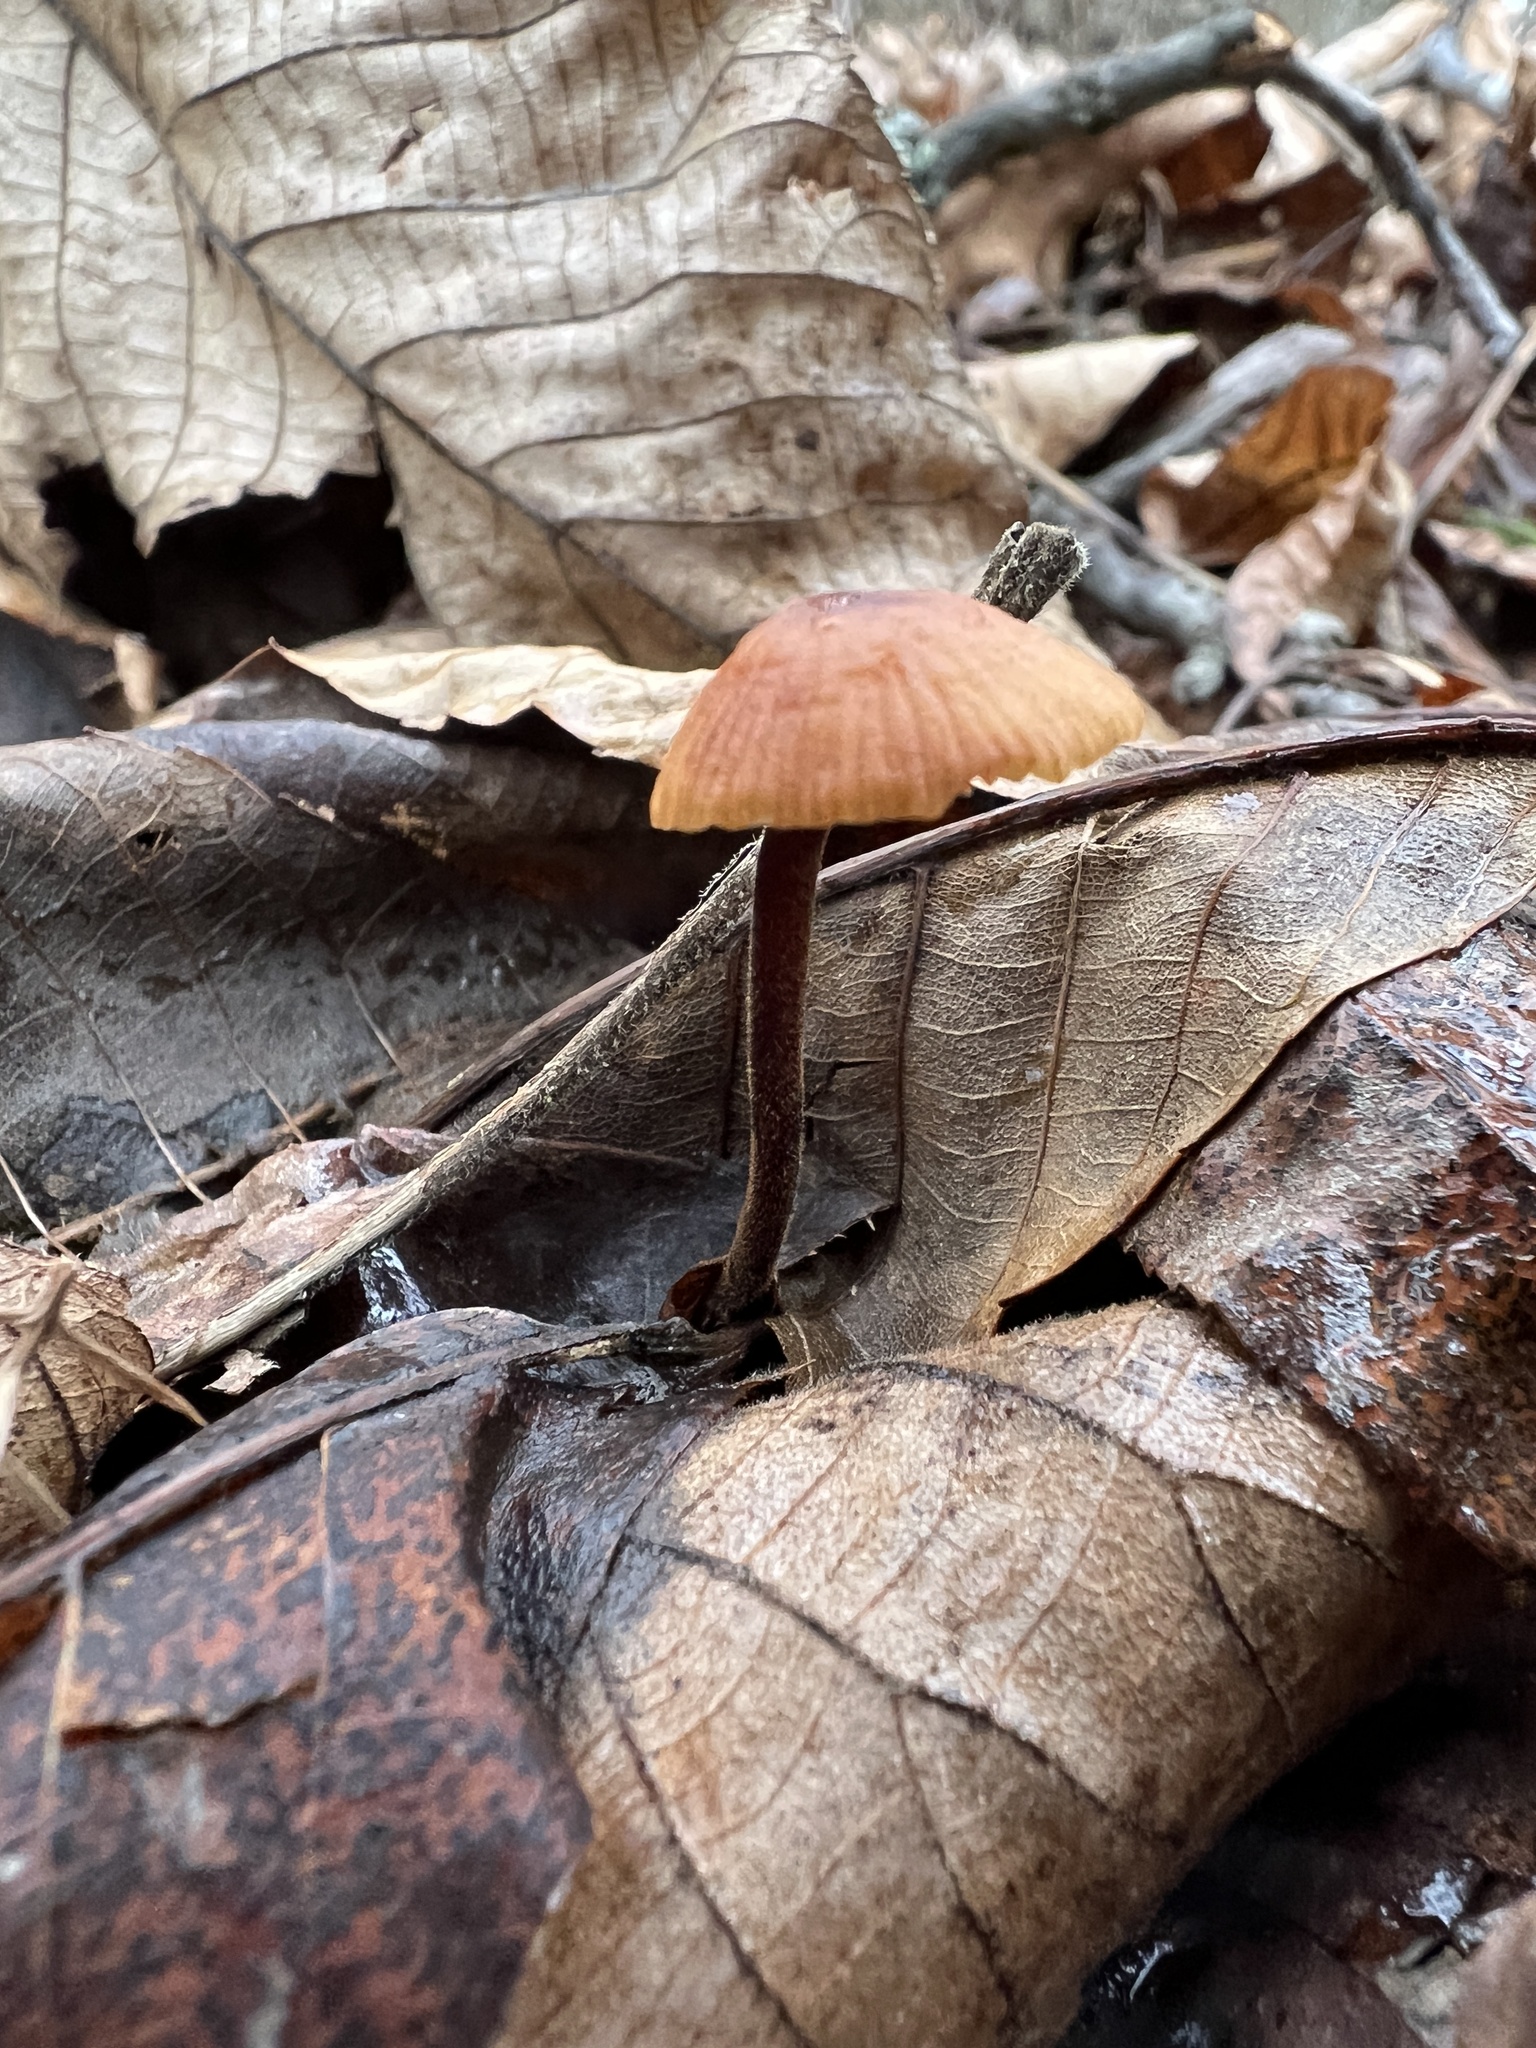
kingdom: Fungi
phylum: Basidiomycota
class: Agaricomycetes
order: Agaricales
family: Physalacriaceae
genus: Rhizomarasmius
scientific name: Rhizomarasmius pyrrhocephalus
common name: Hairy long stem marasmius
